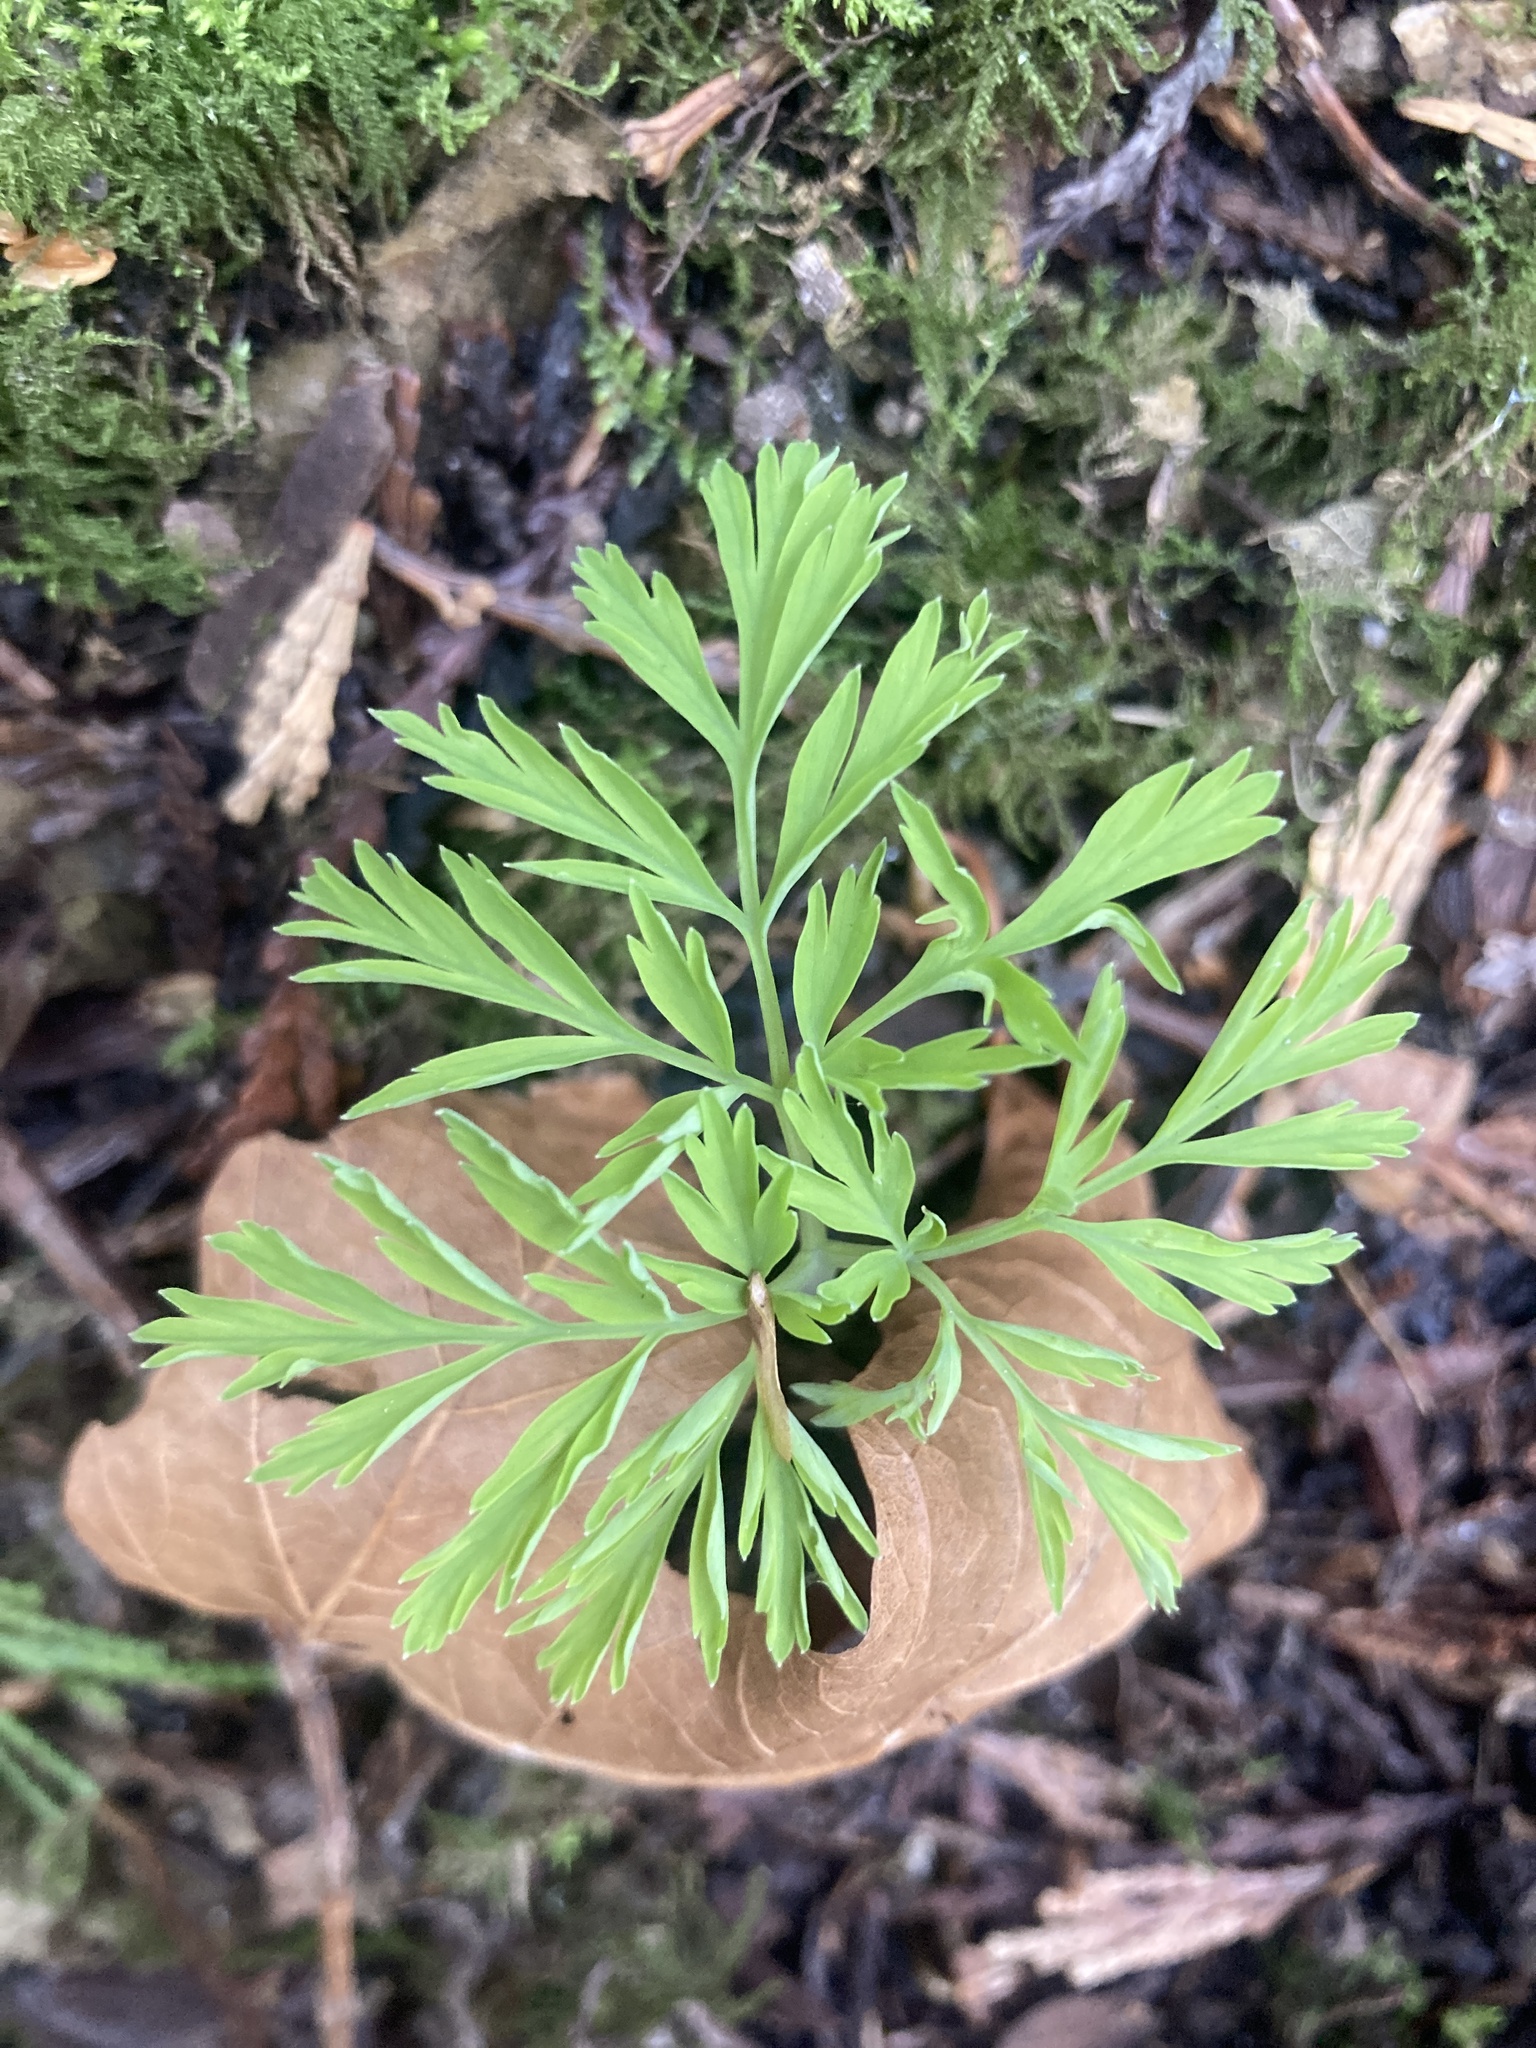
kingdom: Plantae
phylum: Tracheophyta
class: Magnoliopsida
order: Ranunculales
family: Papaveraceae
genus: Dicentra
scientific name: Dicentra formosa
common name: Bleeding-heart
